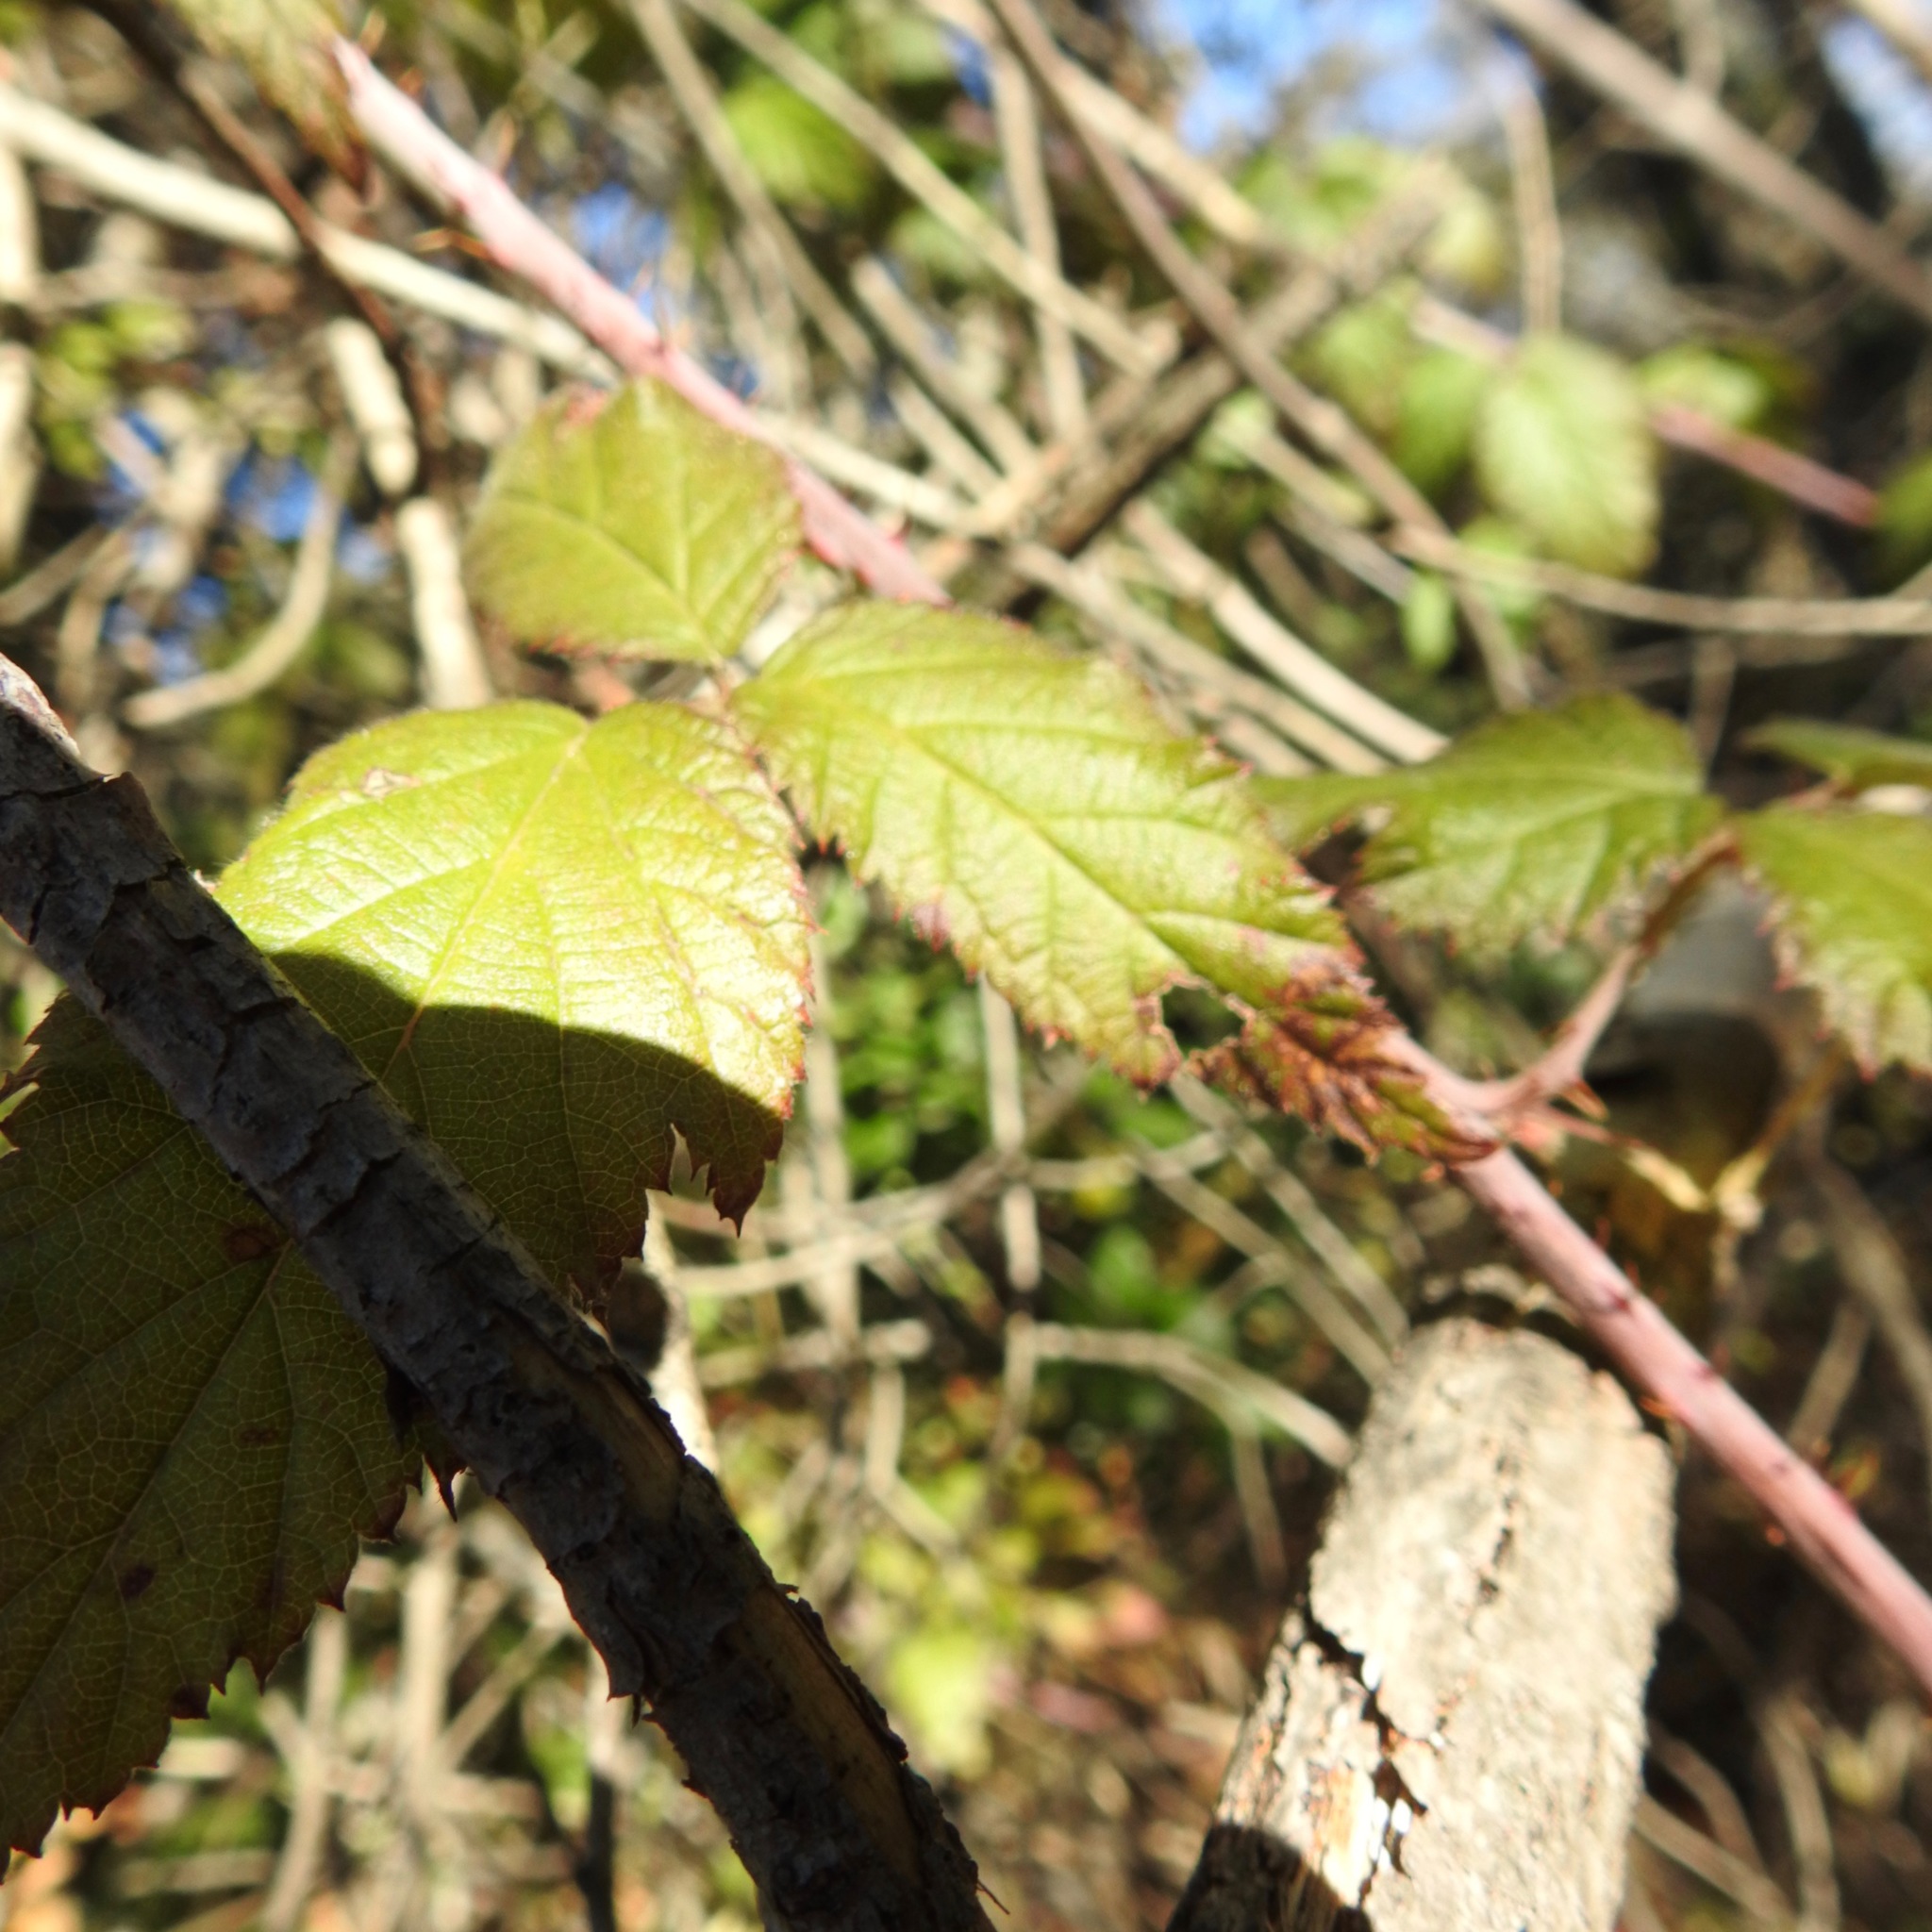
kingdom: Plantae
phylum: Tracheophyta
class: Magnoliopsida
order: Rosales
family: Rosaceae
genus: Rubus
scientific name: Rubus ursinus
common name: Pacific blackberry
